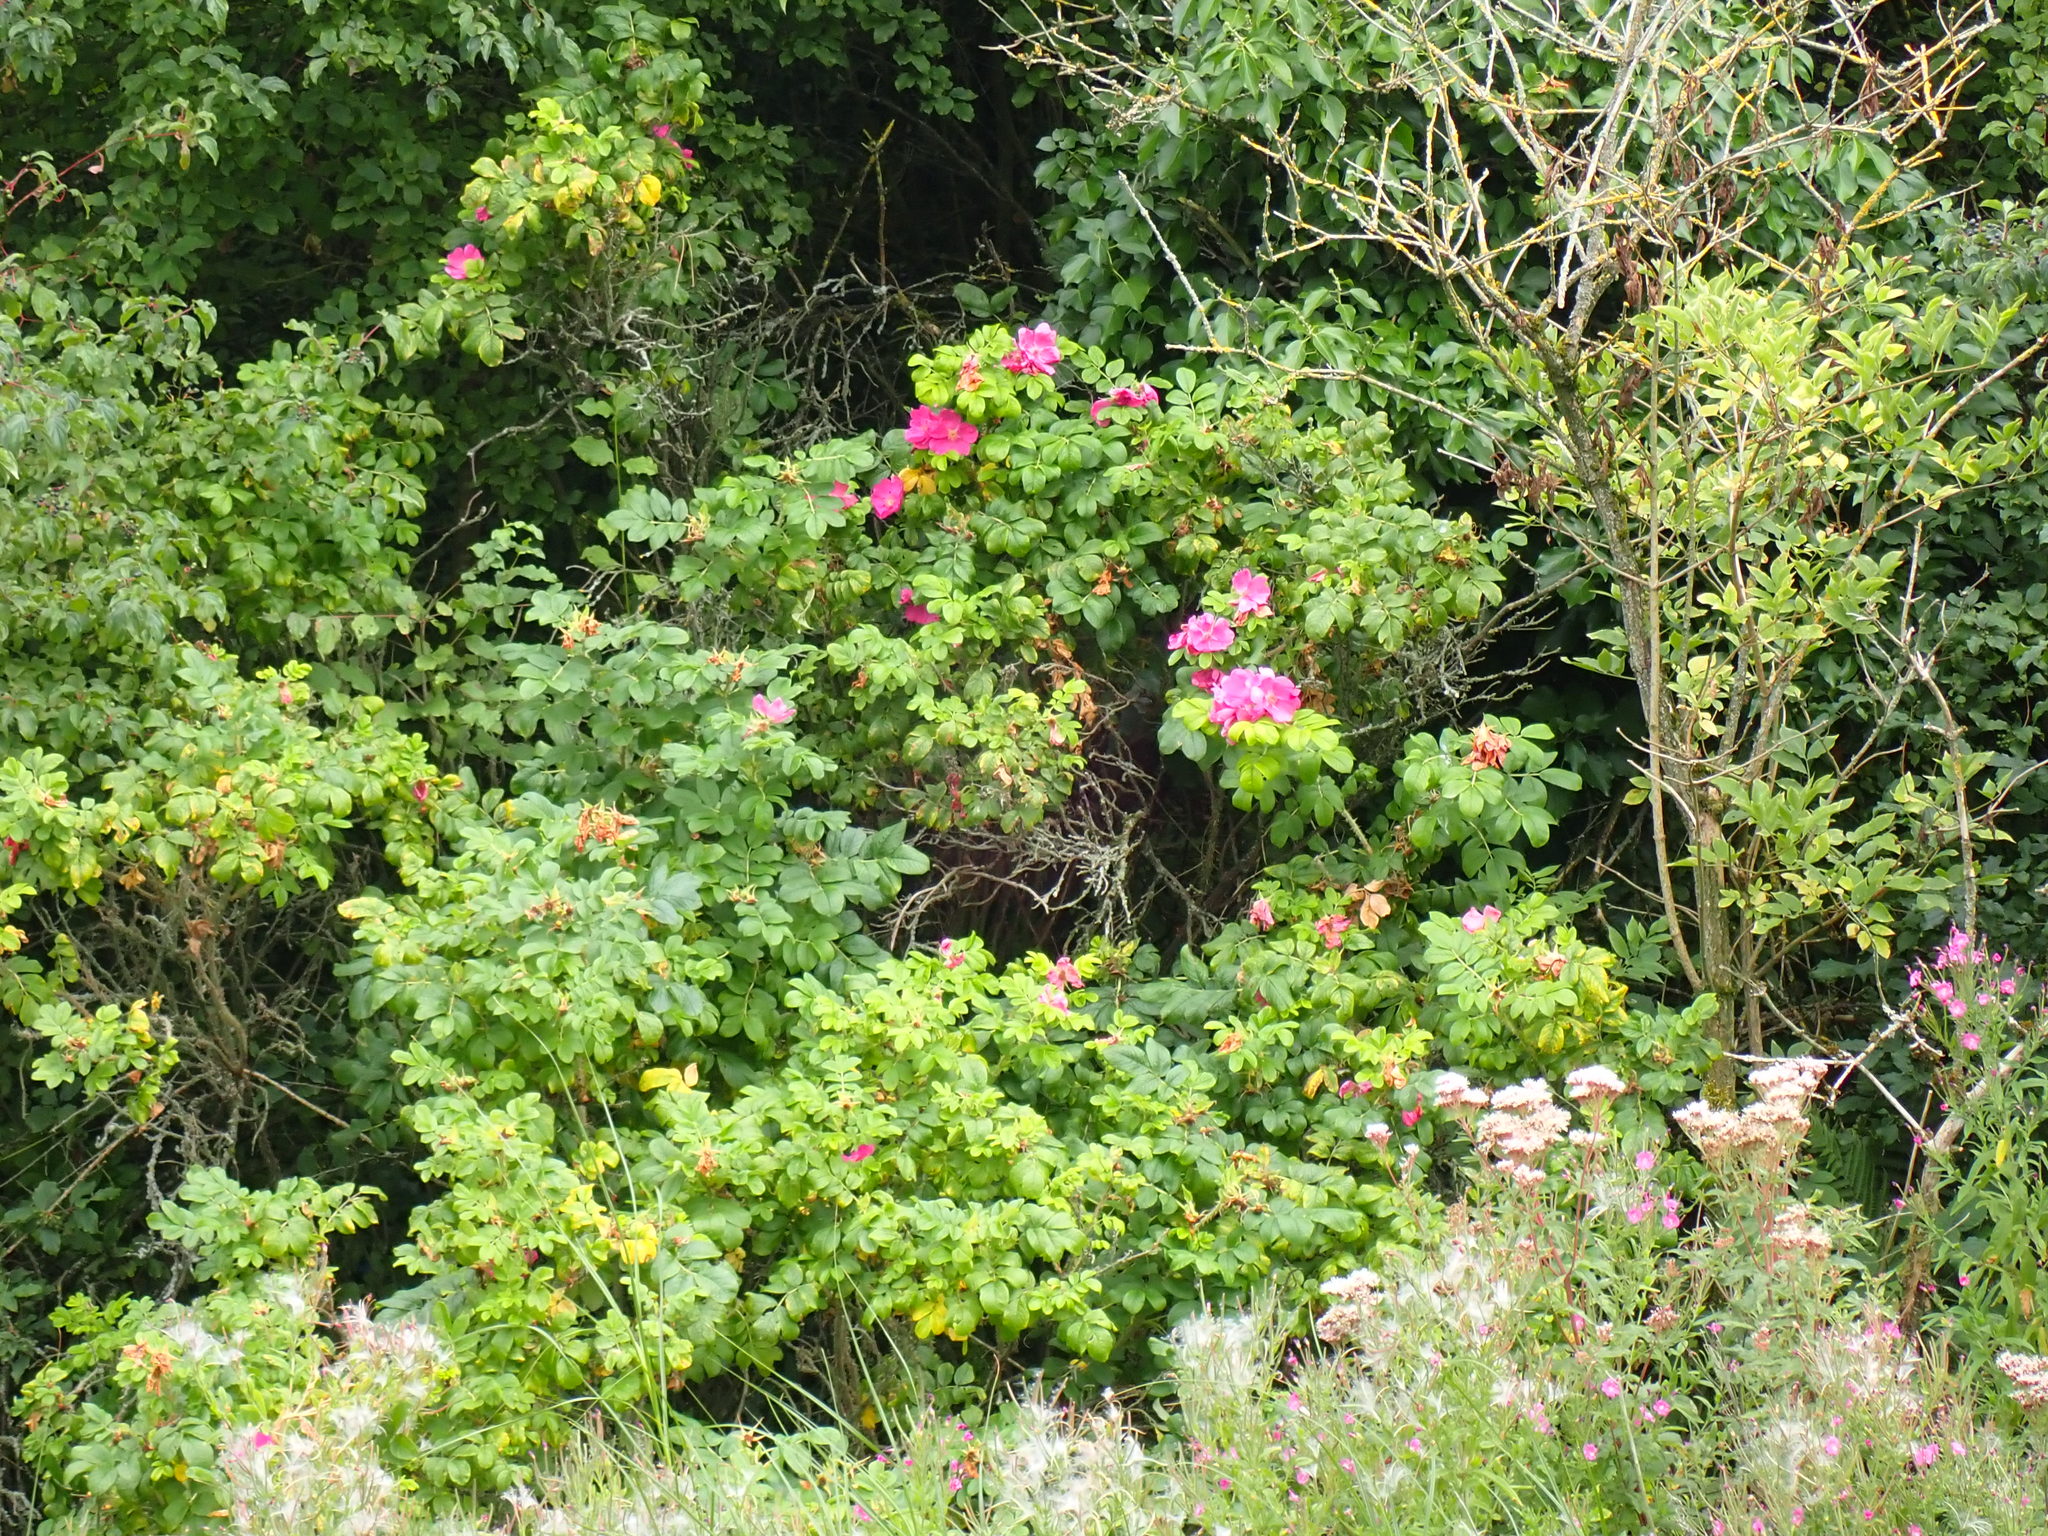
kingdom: Plantae
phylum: Tracheophyta
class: Magnoliopsida
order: Rosales
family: Rosaceae
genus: Rosa
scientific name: Rosa rugosa
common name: Japanese rose
